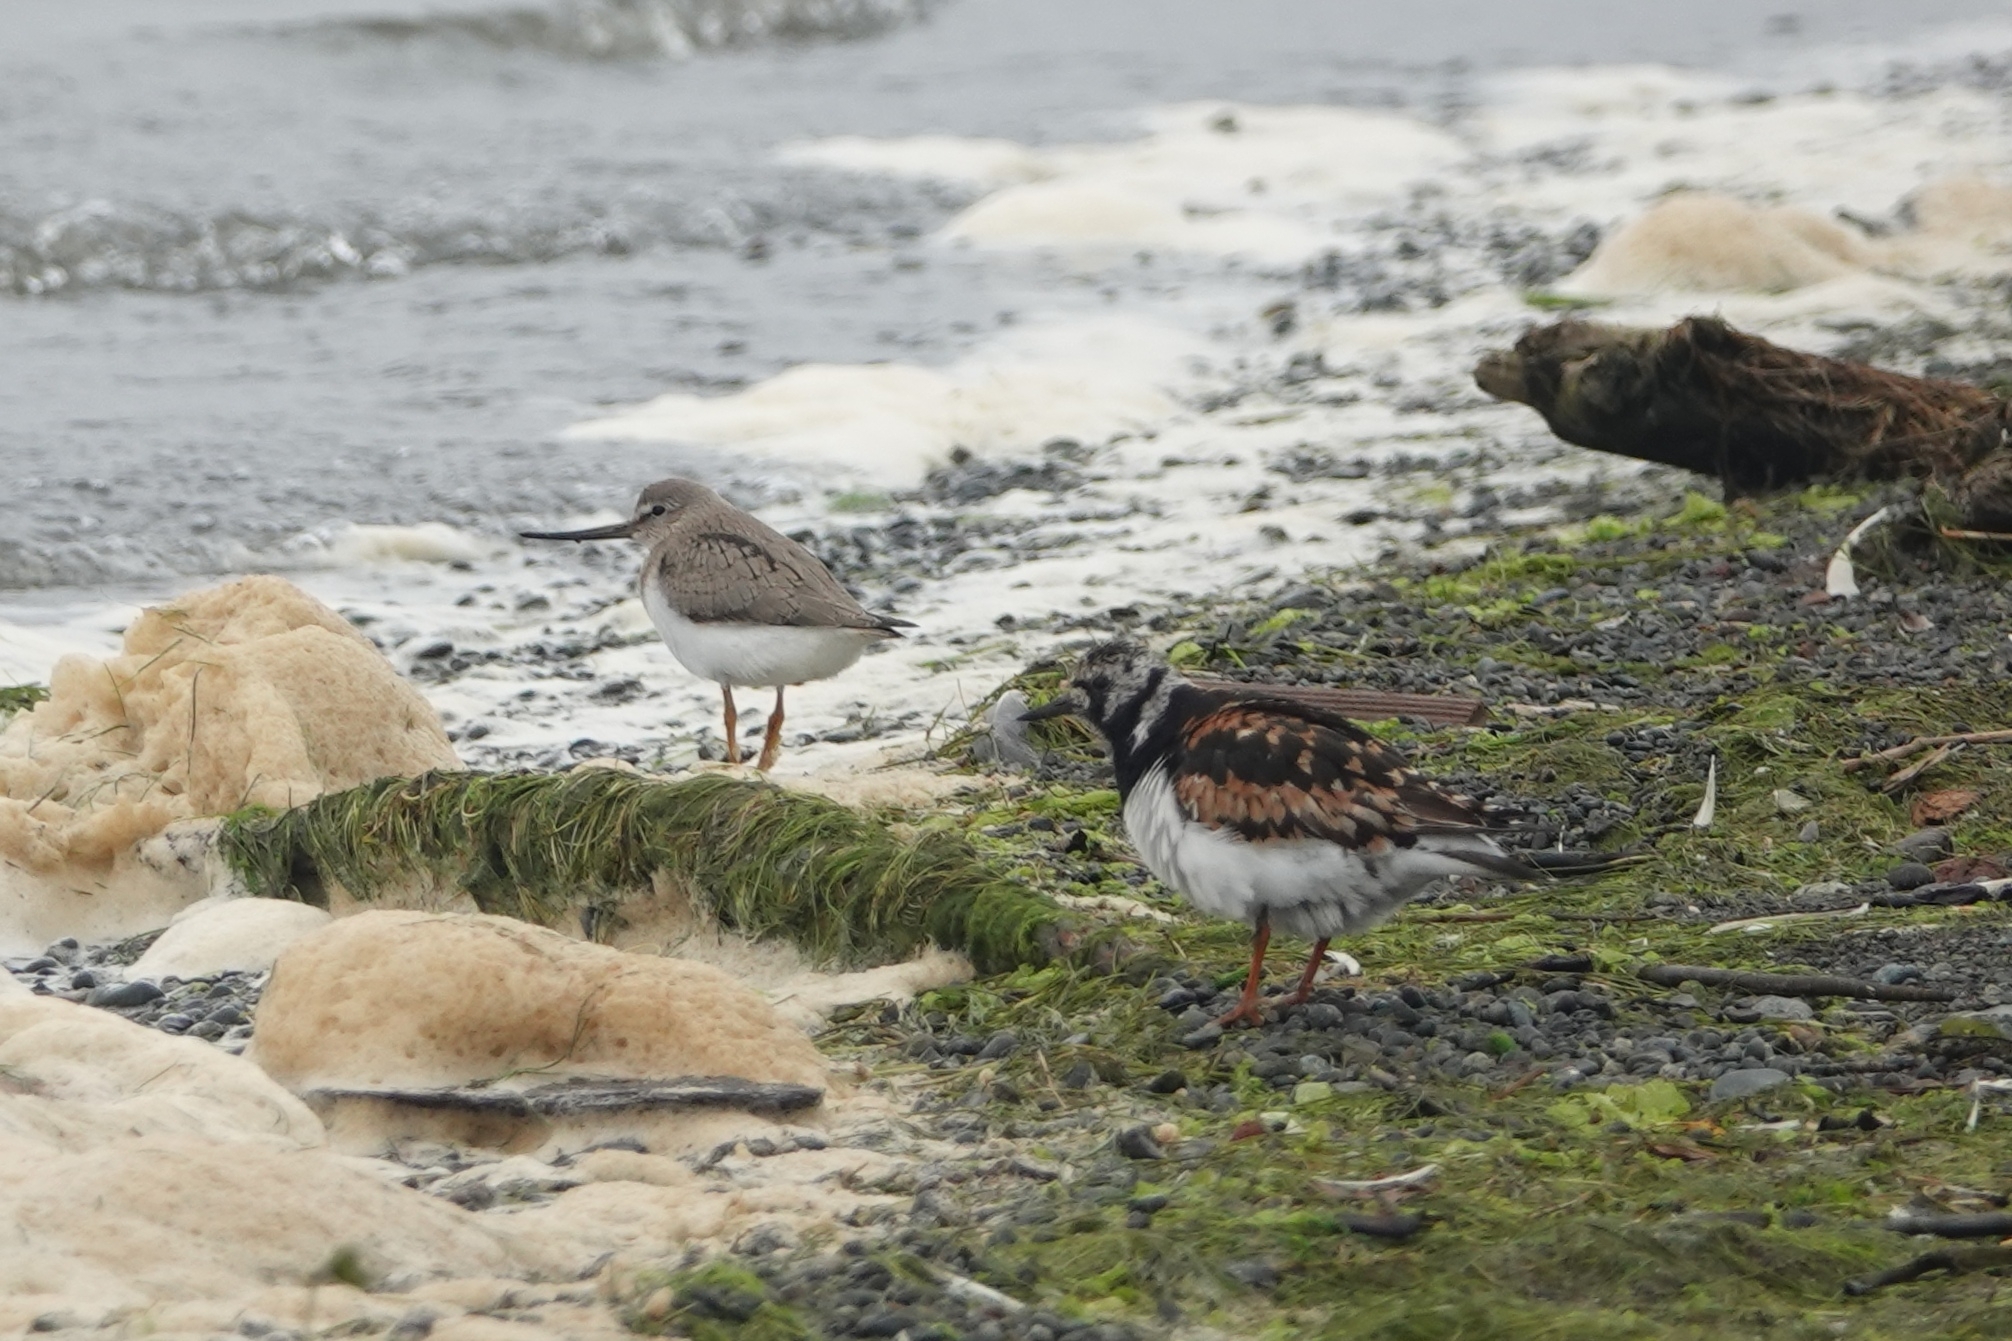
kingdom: Animalia
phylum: Chordata
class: Aves
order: Charadriiformes
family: Scolopacidae
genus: Arenaria
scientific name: Arenaria interpres
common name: Ruddy turnstone
